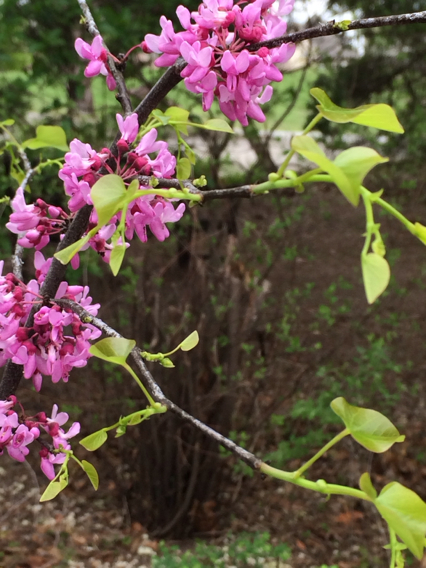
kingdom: Plantae
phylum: Tracheophyta
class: Magnoliopsida
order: Fabales
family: Fabaceae
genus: Cercis
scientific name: Cercis canadensis
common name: Eastern redbud
